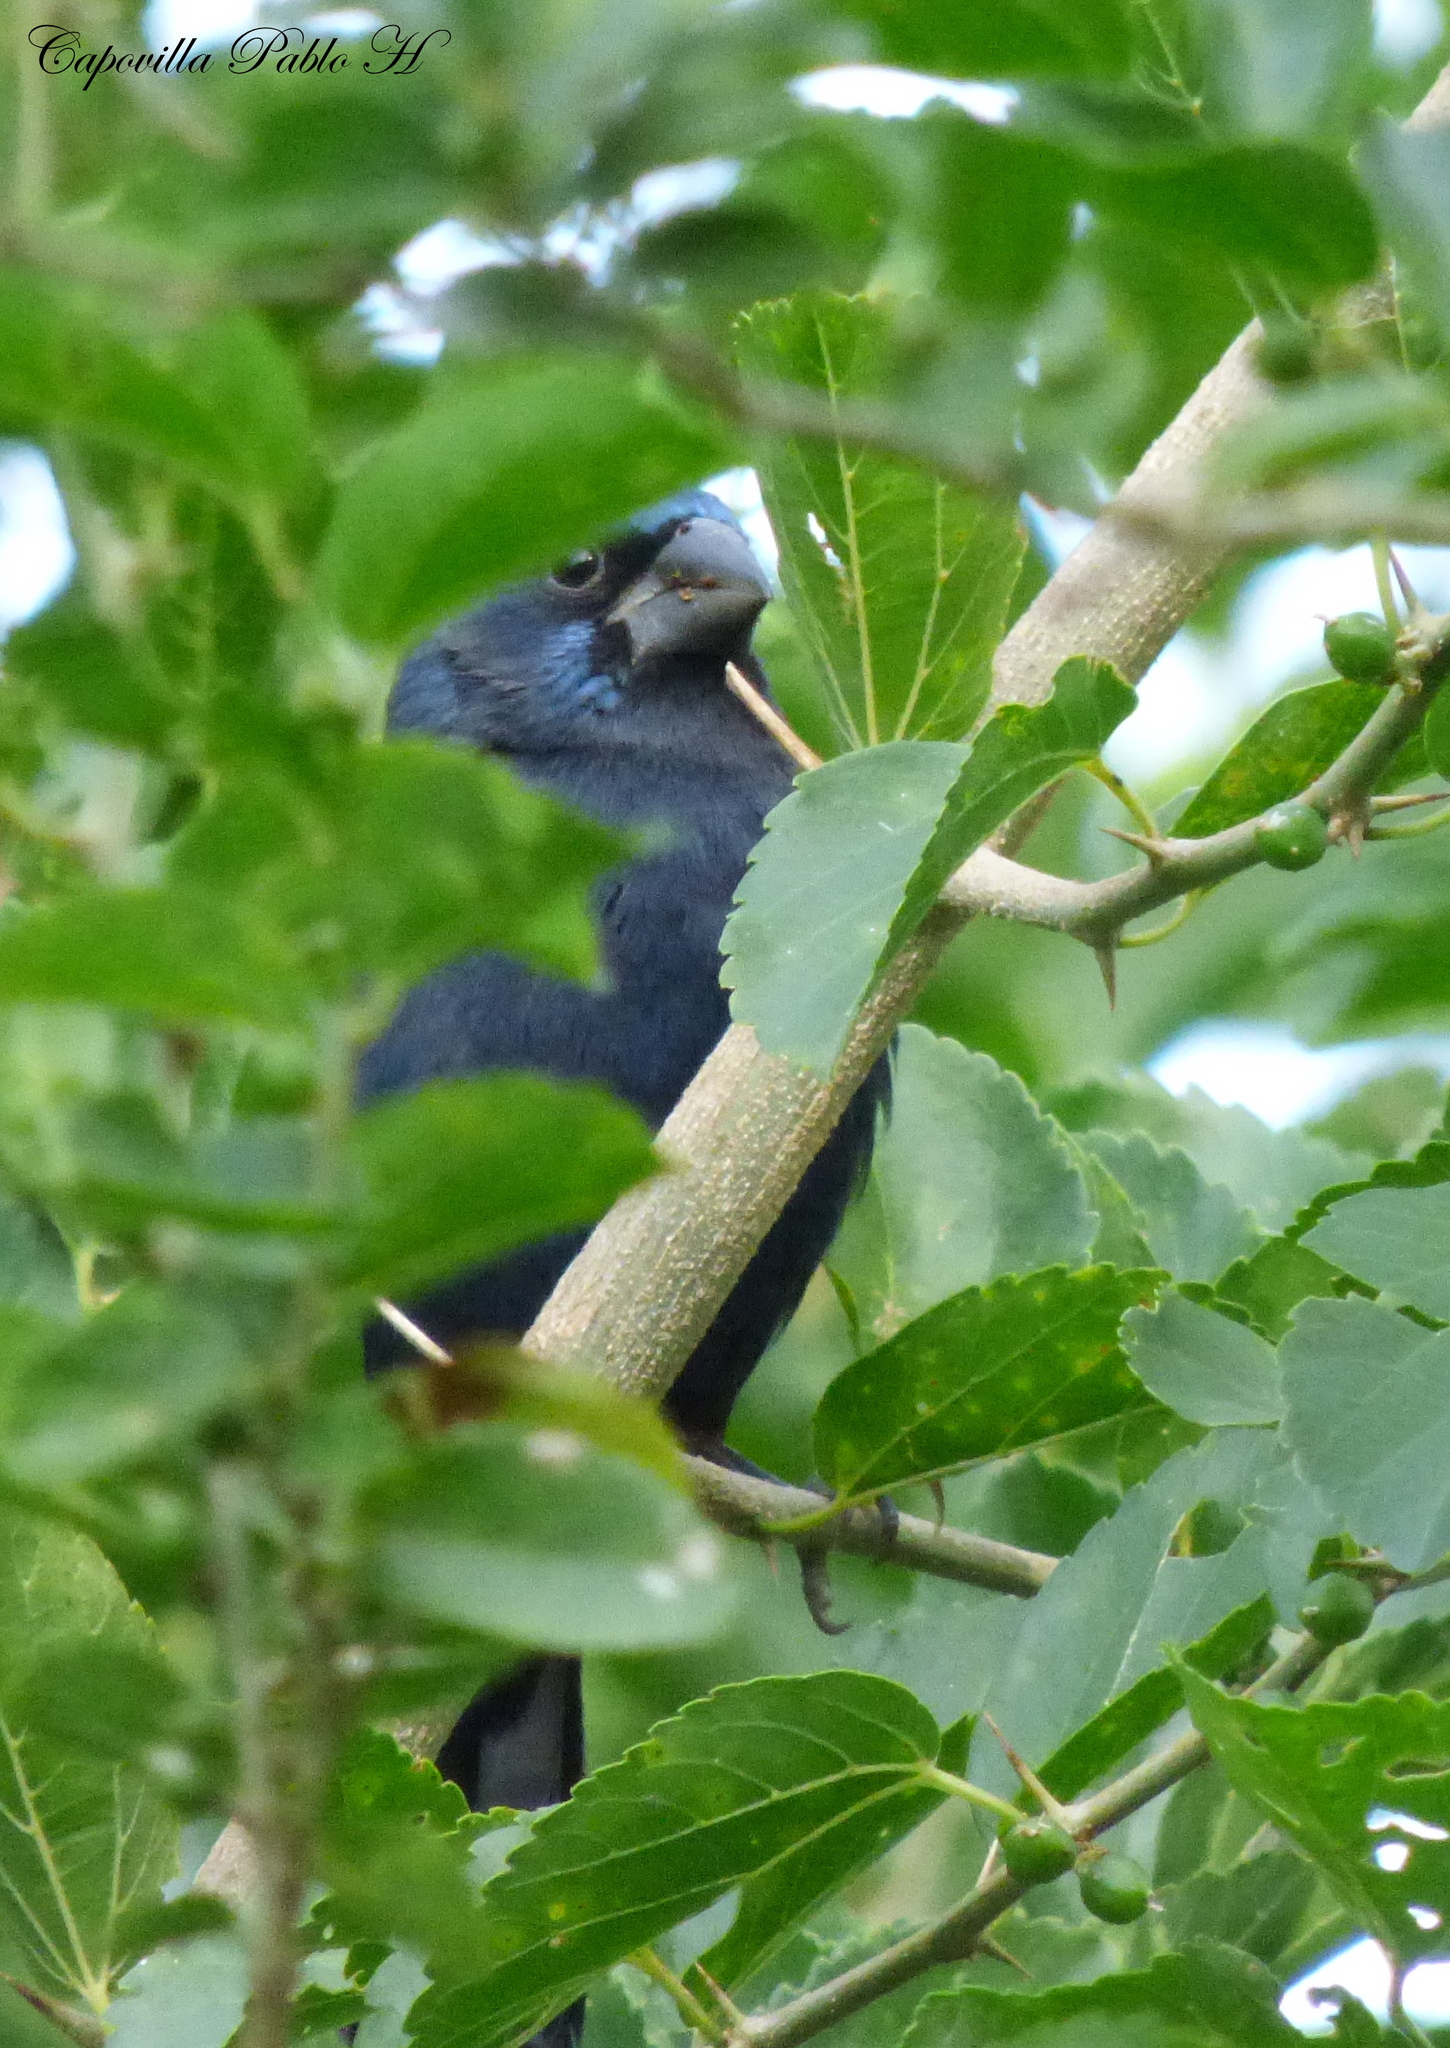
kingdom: Animalia
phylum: Chordata
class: Aves
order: Passeriformes
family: Cardinalidae
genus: Cyanoloxia
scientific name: Cyanoloxia brissonii
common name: Ultramarine grosbeak
